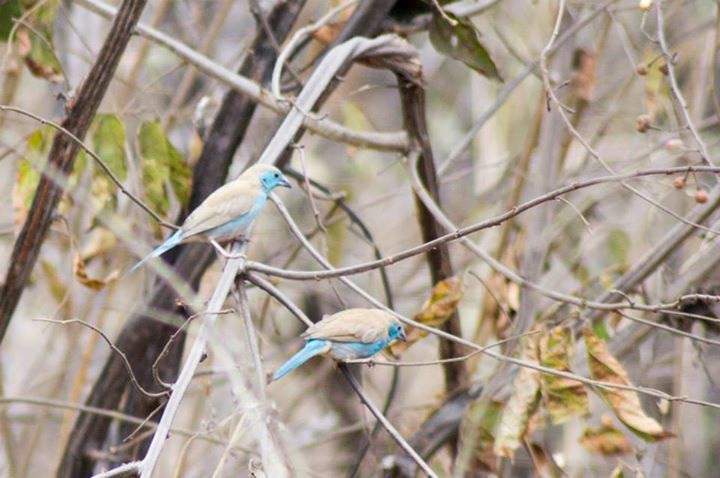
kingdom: Animalia
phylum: Chordata
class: Aves
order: Passeriformes
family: Estrildidae
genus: Uraeginthus
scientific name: Uraeginthus angolensis
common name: Blue waxbill
